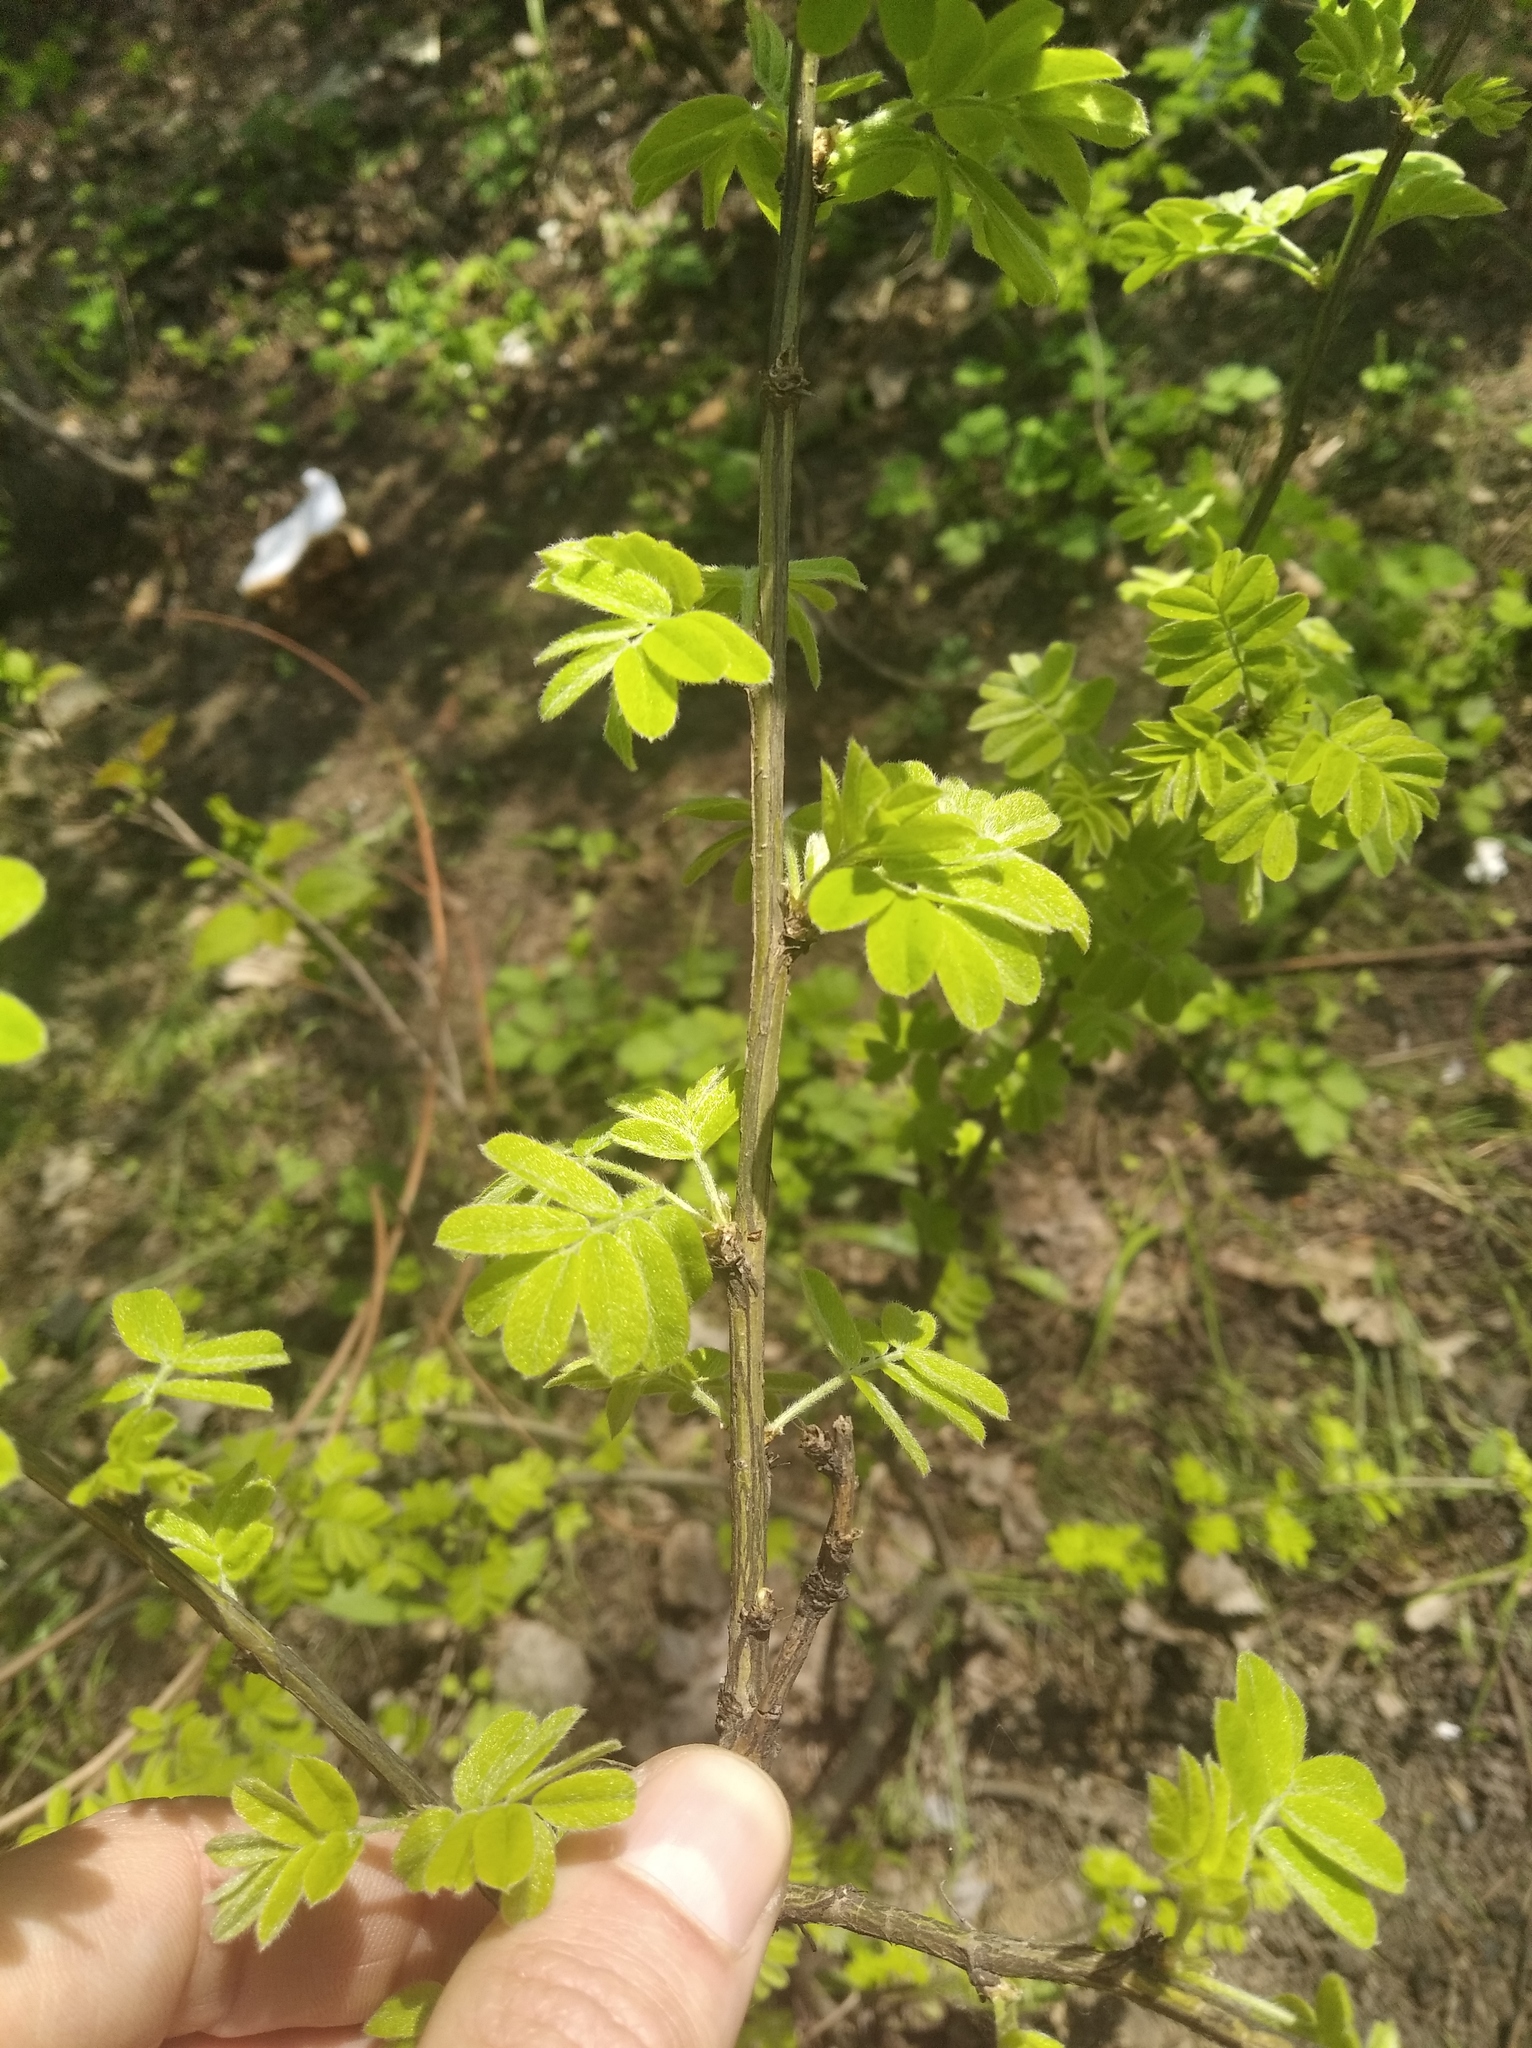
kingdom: Plantae
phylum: Tracheophyta
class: Magnoliopsida
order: Fabales
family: Fabaceae
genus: Caragana
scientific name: Caragana arborescens
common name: Siberian peashrub
